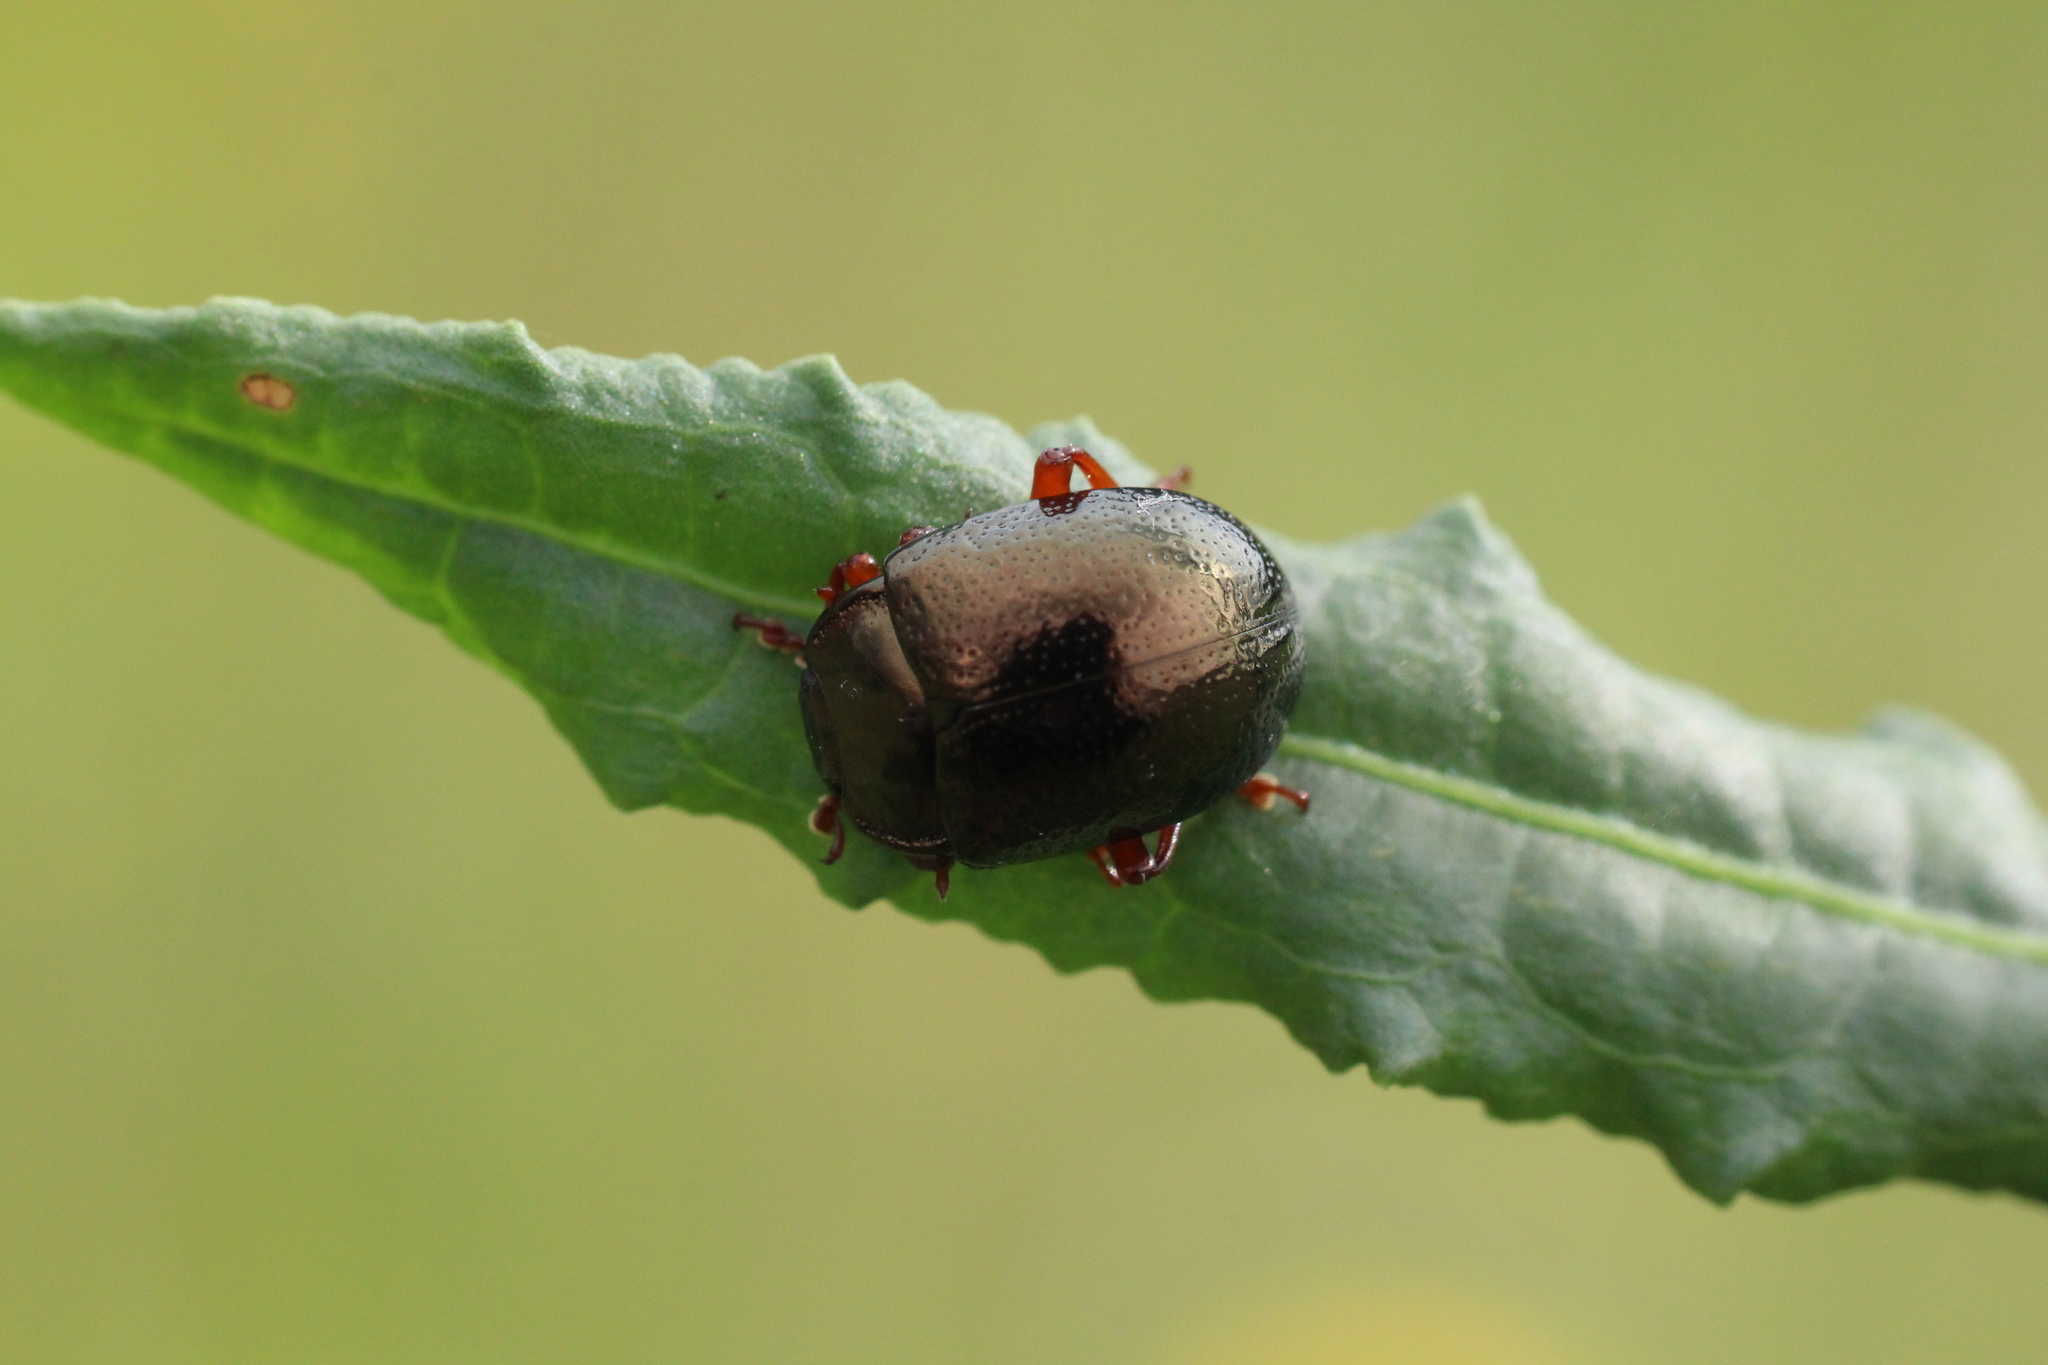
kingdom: Animalia
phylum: Arthropoda
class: Insecta
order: Coleoptera
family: Chrysomelidae
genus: Chrysolina
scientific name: Chrysolina bankii
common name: Leaf beetle
